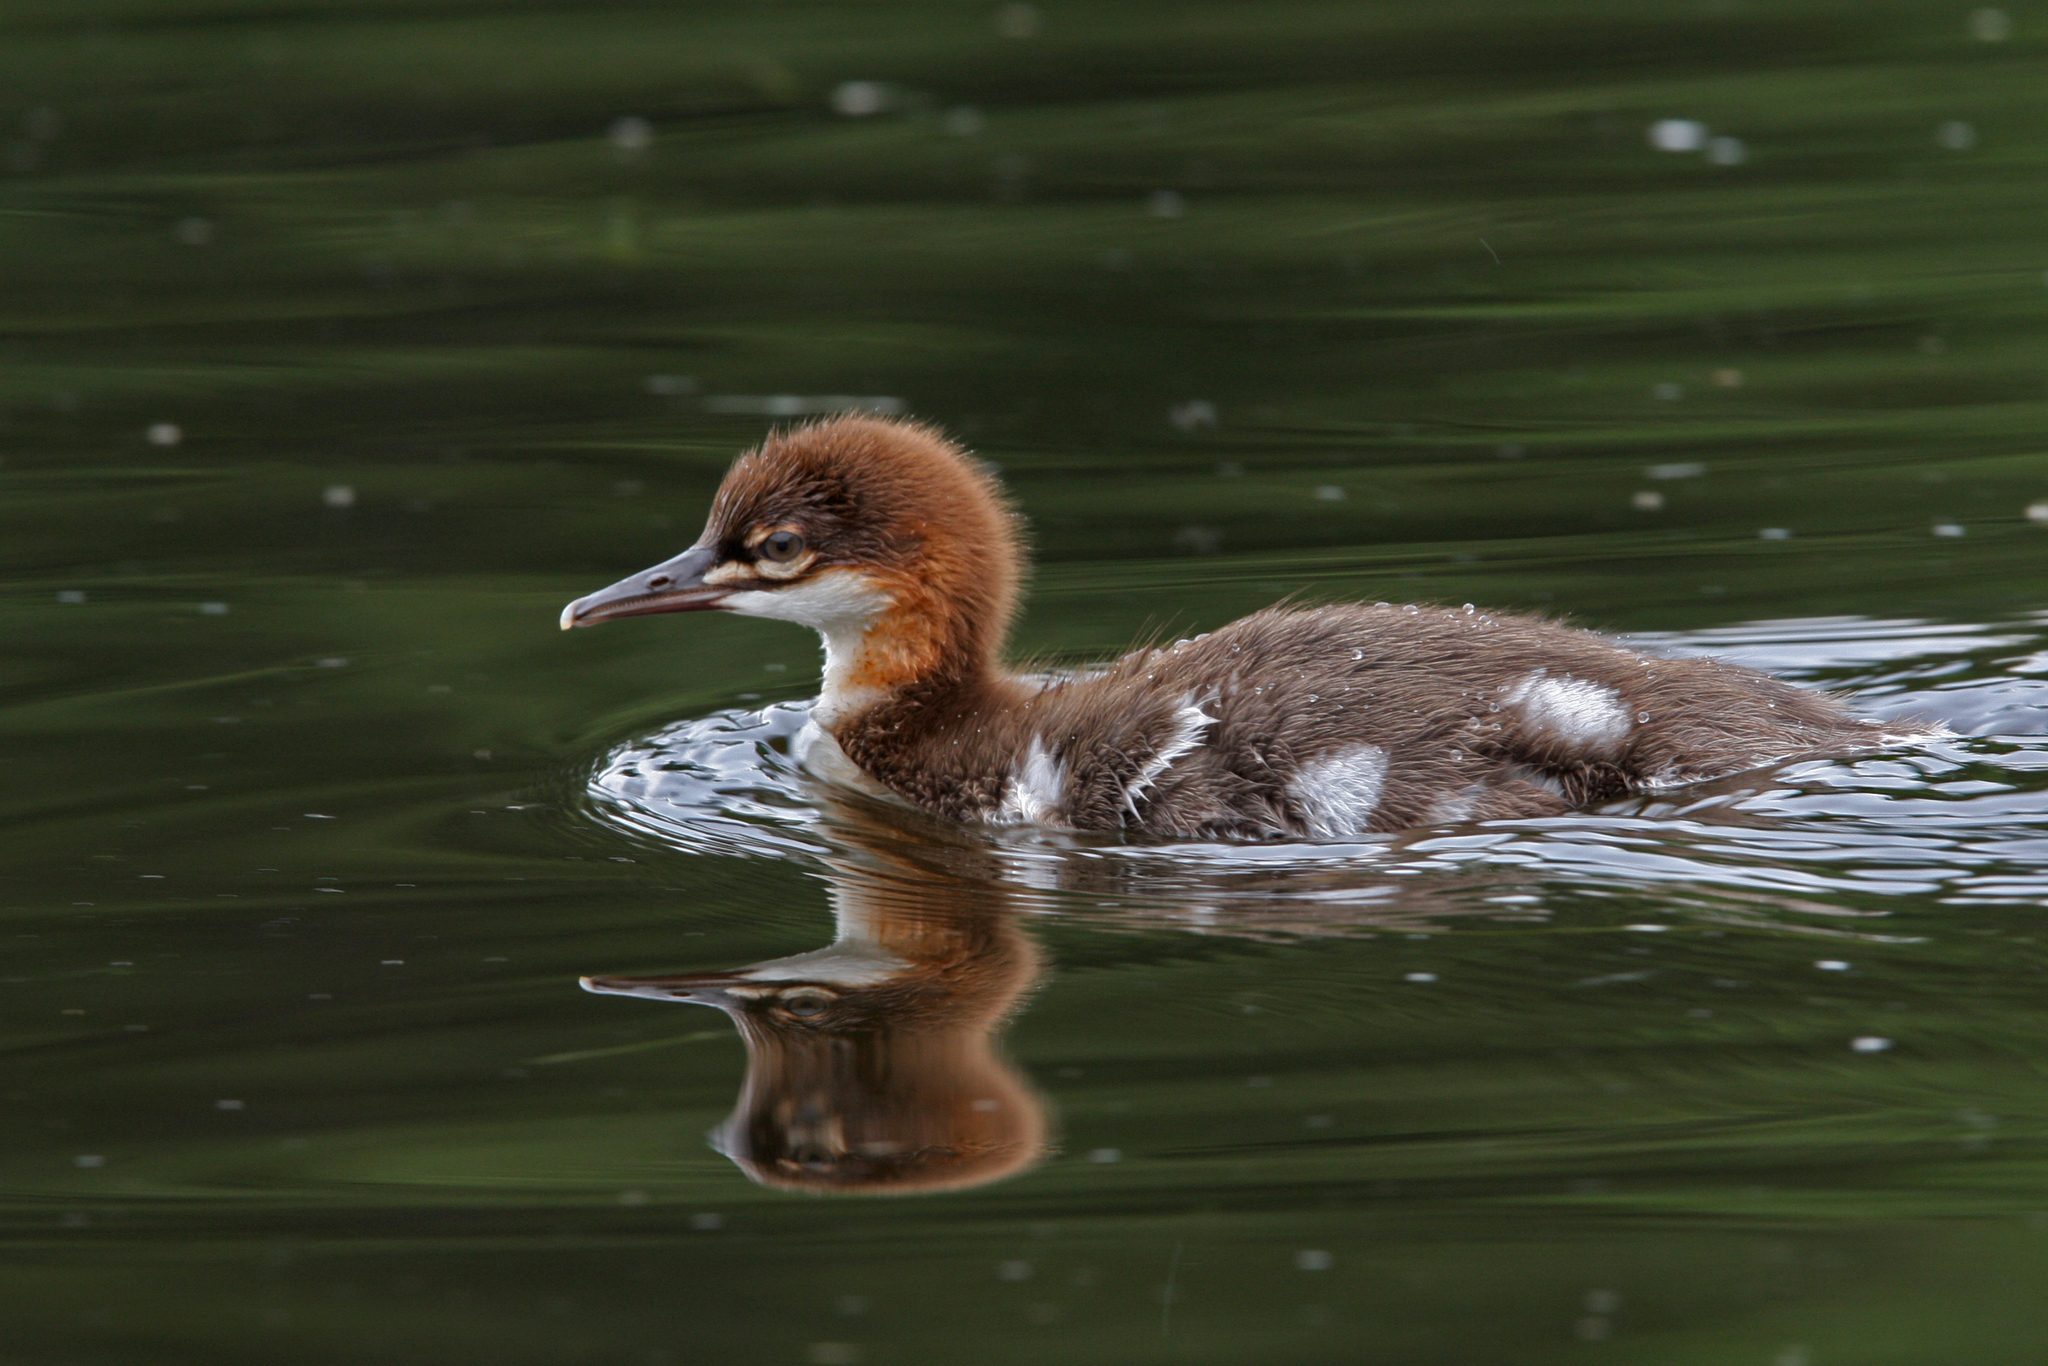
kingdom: Animalia
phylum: Chordata
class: Aves
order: Anseriformes
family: Anatidae
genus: Mergus
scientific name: Mergus merganser
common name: Common merganser
